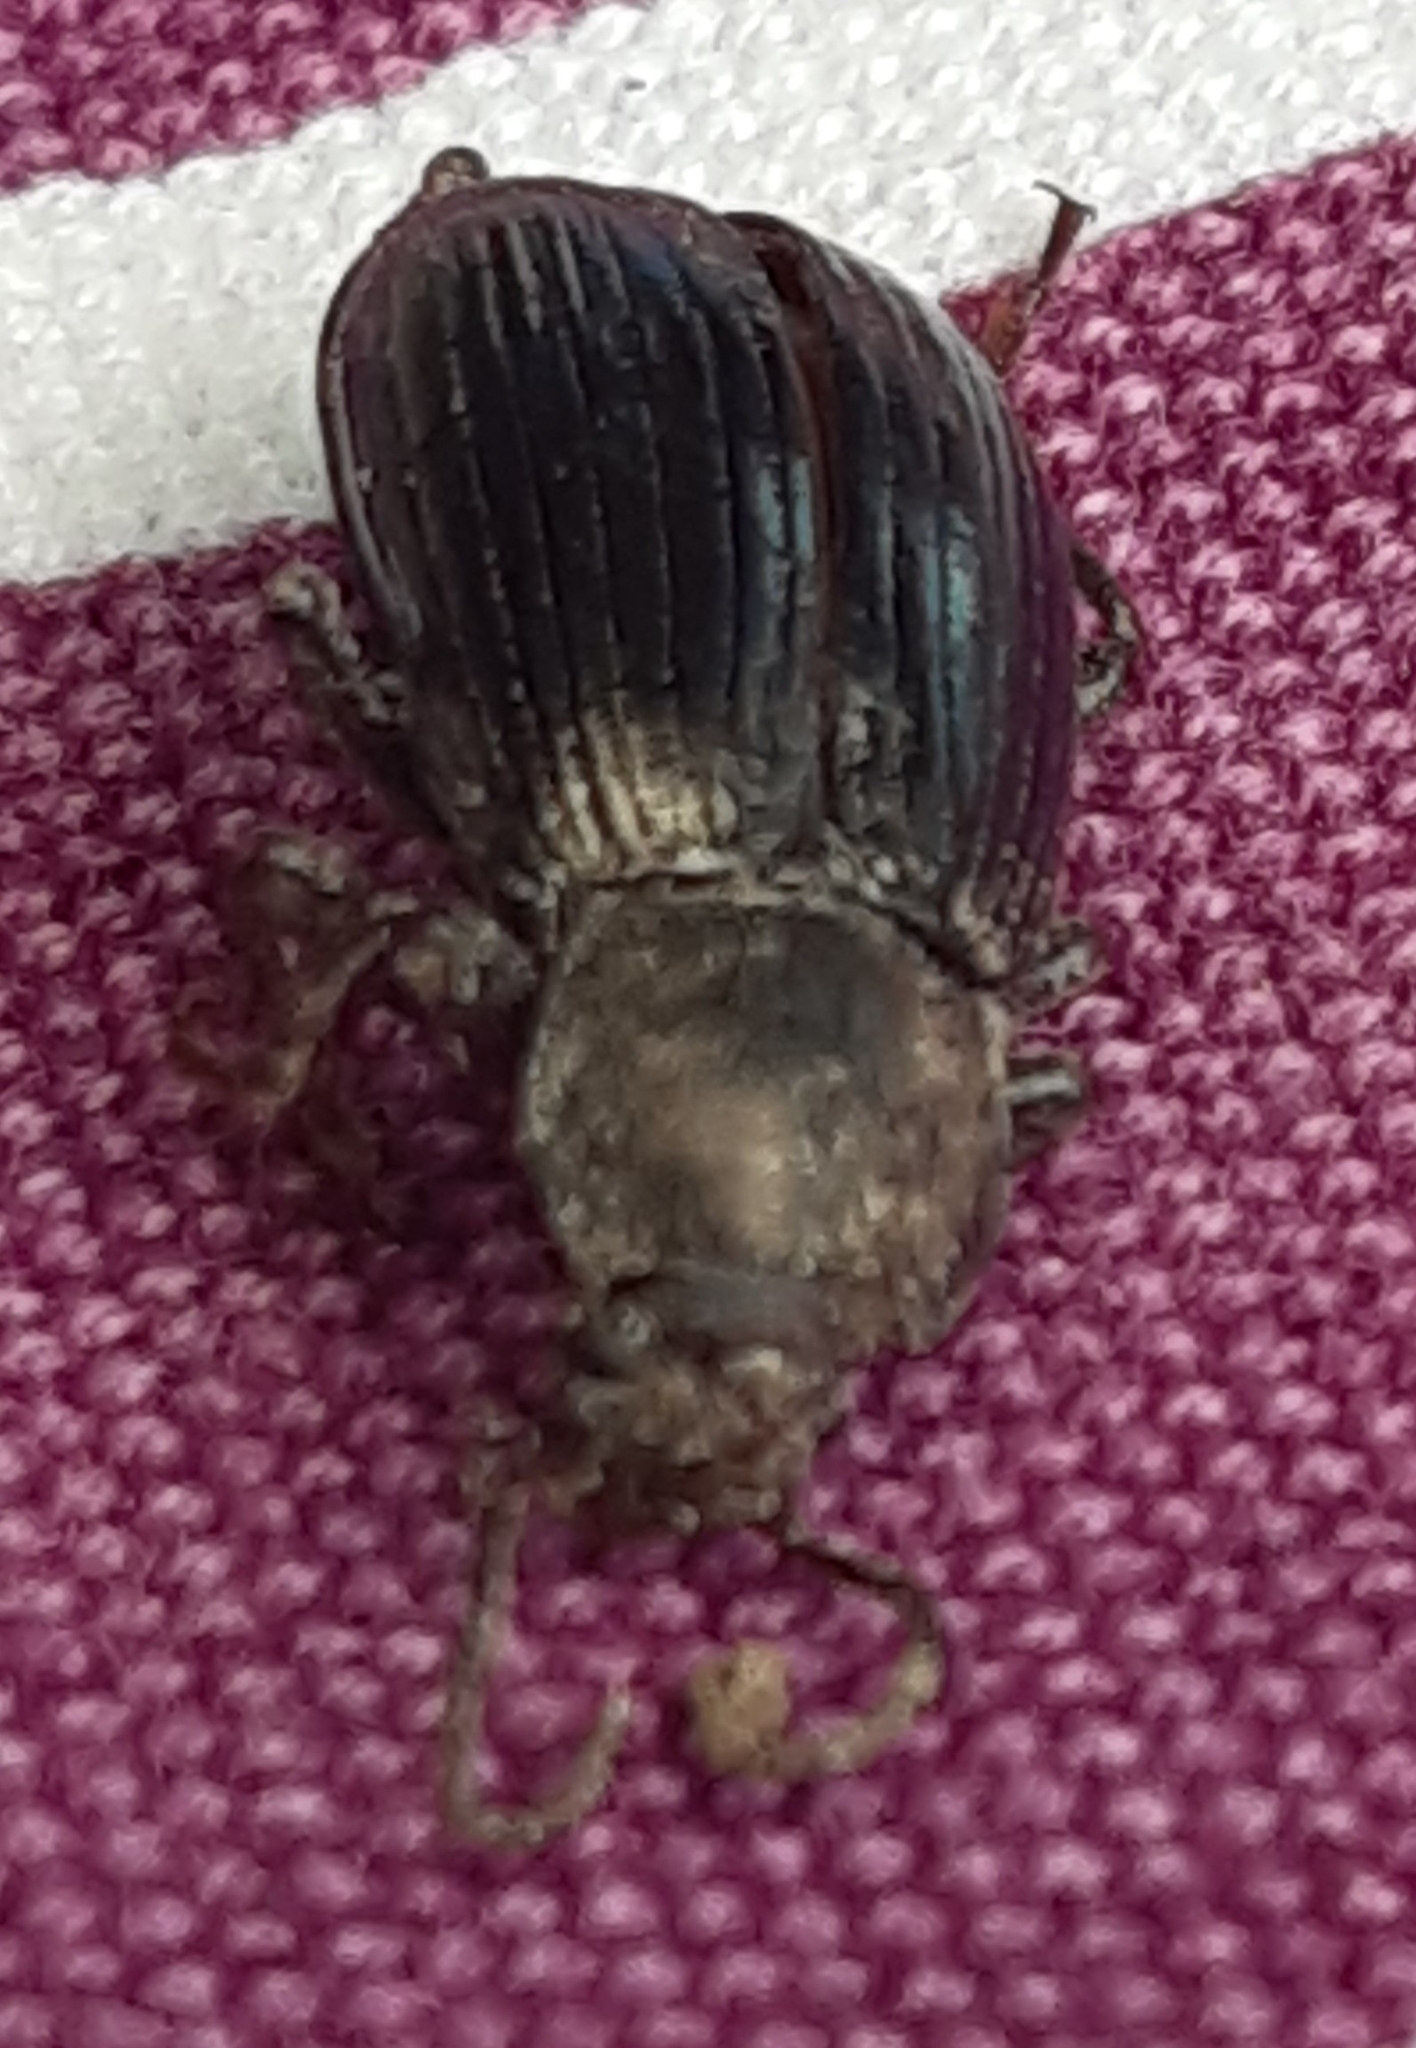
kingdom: Animalia
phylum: Arthropoda
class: Insecta
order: Coleoptera
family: Tenebrionidae
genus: Stenomax
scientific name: Stenomax aeneus
